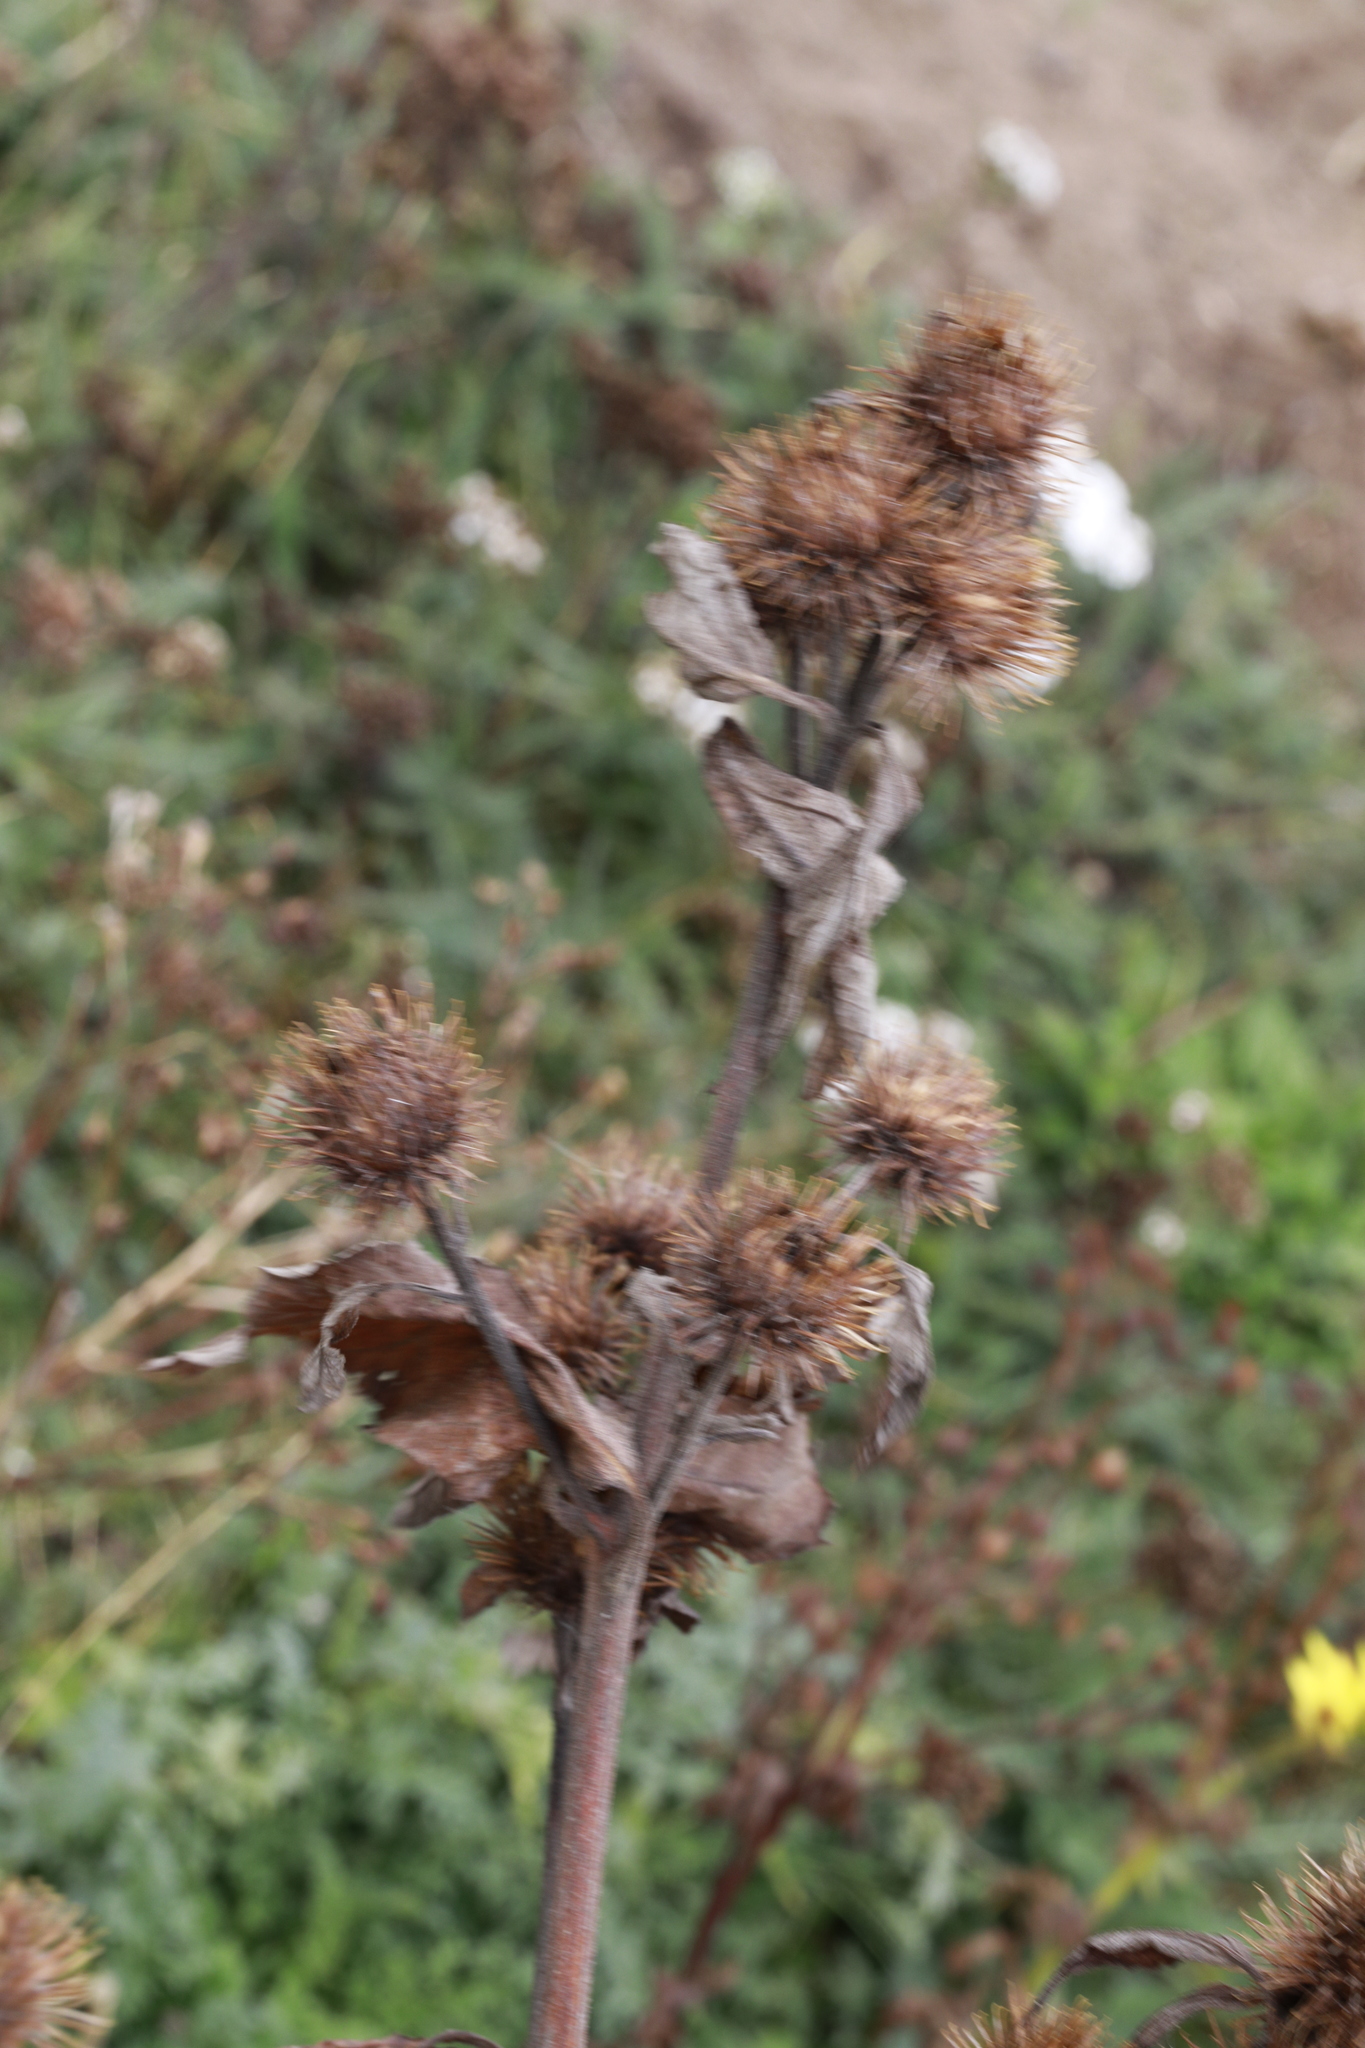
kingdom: Plantae
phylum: Tracheophyta
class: Magnoliopsida
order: Asterales
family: Asteraceae
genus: Arctium
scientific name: Arctium minus
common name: Lesser burdock
